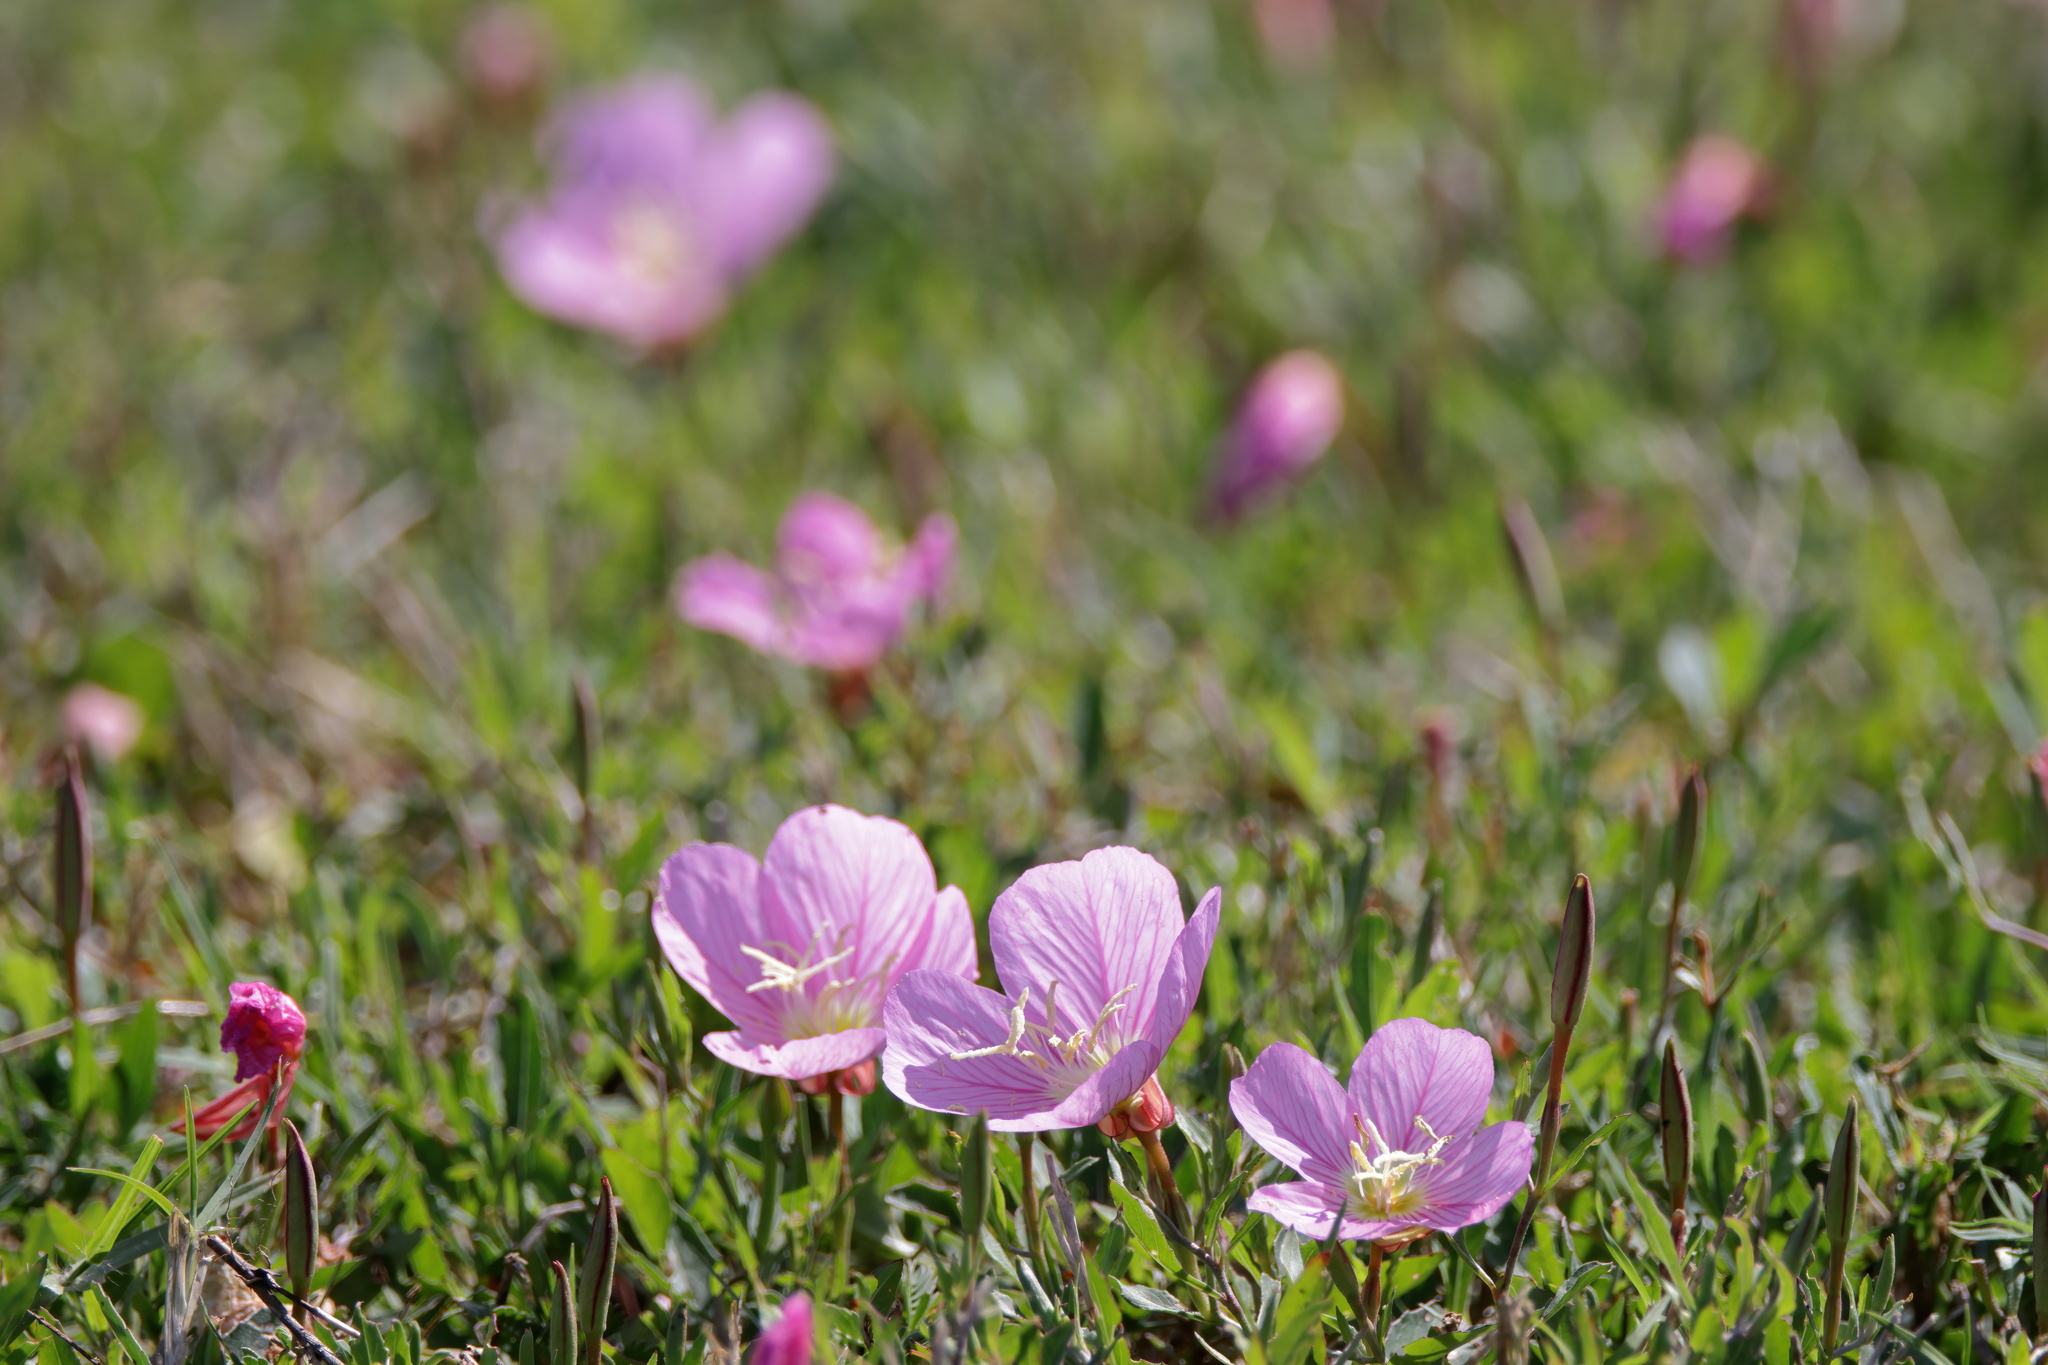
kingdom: Plantae
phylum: Tracheophyta
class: Magnoliopsida
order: Myrtales
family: Onagraceae
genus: Oenothera
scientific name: Oenothera speciosa
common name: White evening-primrose
